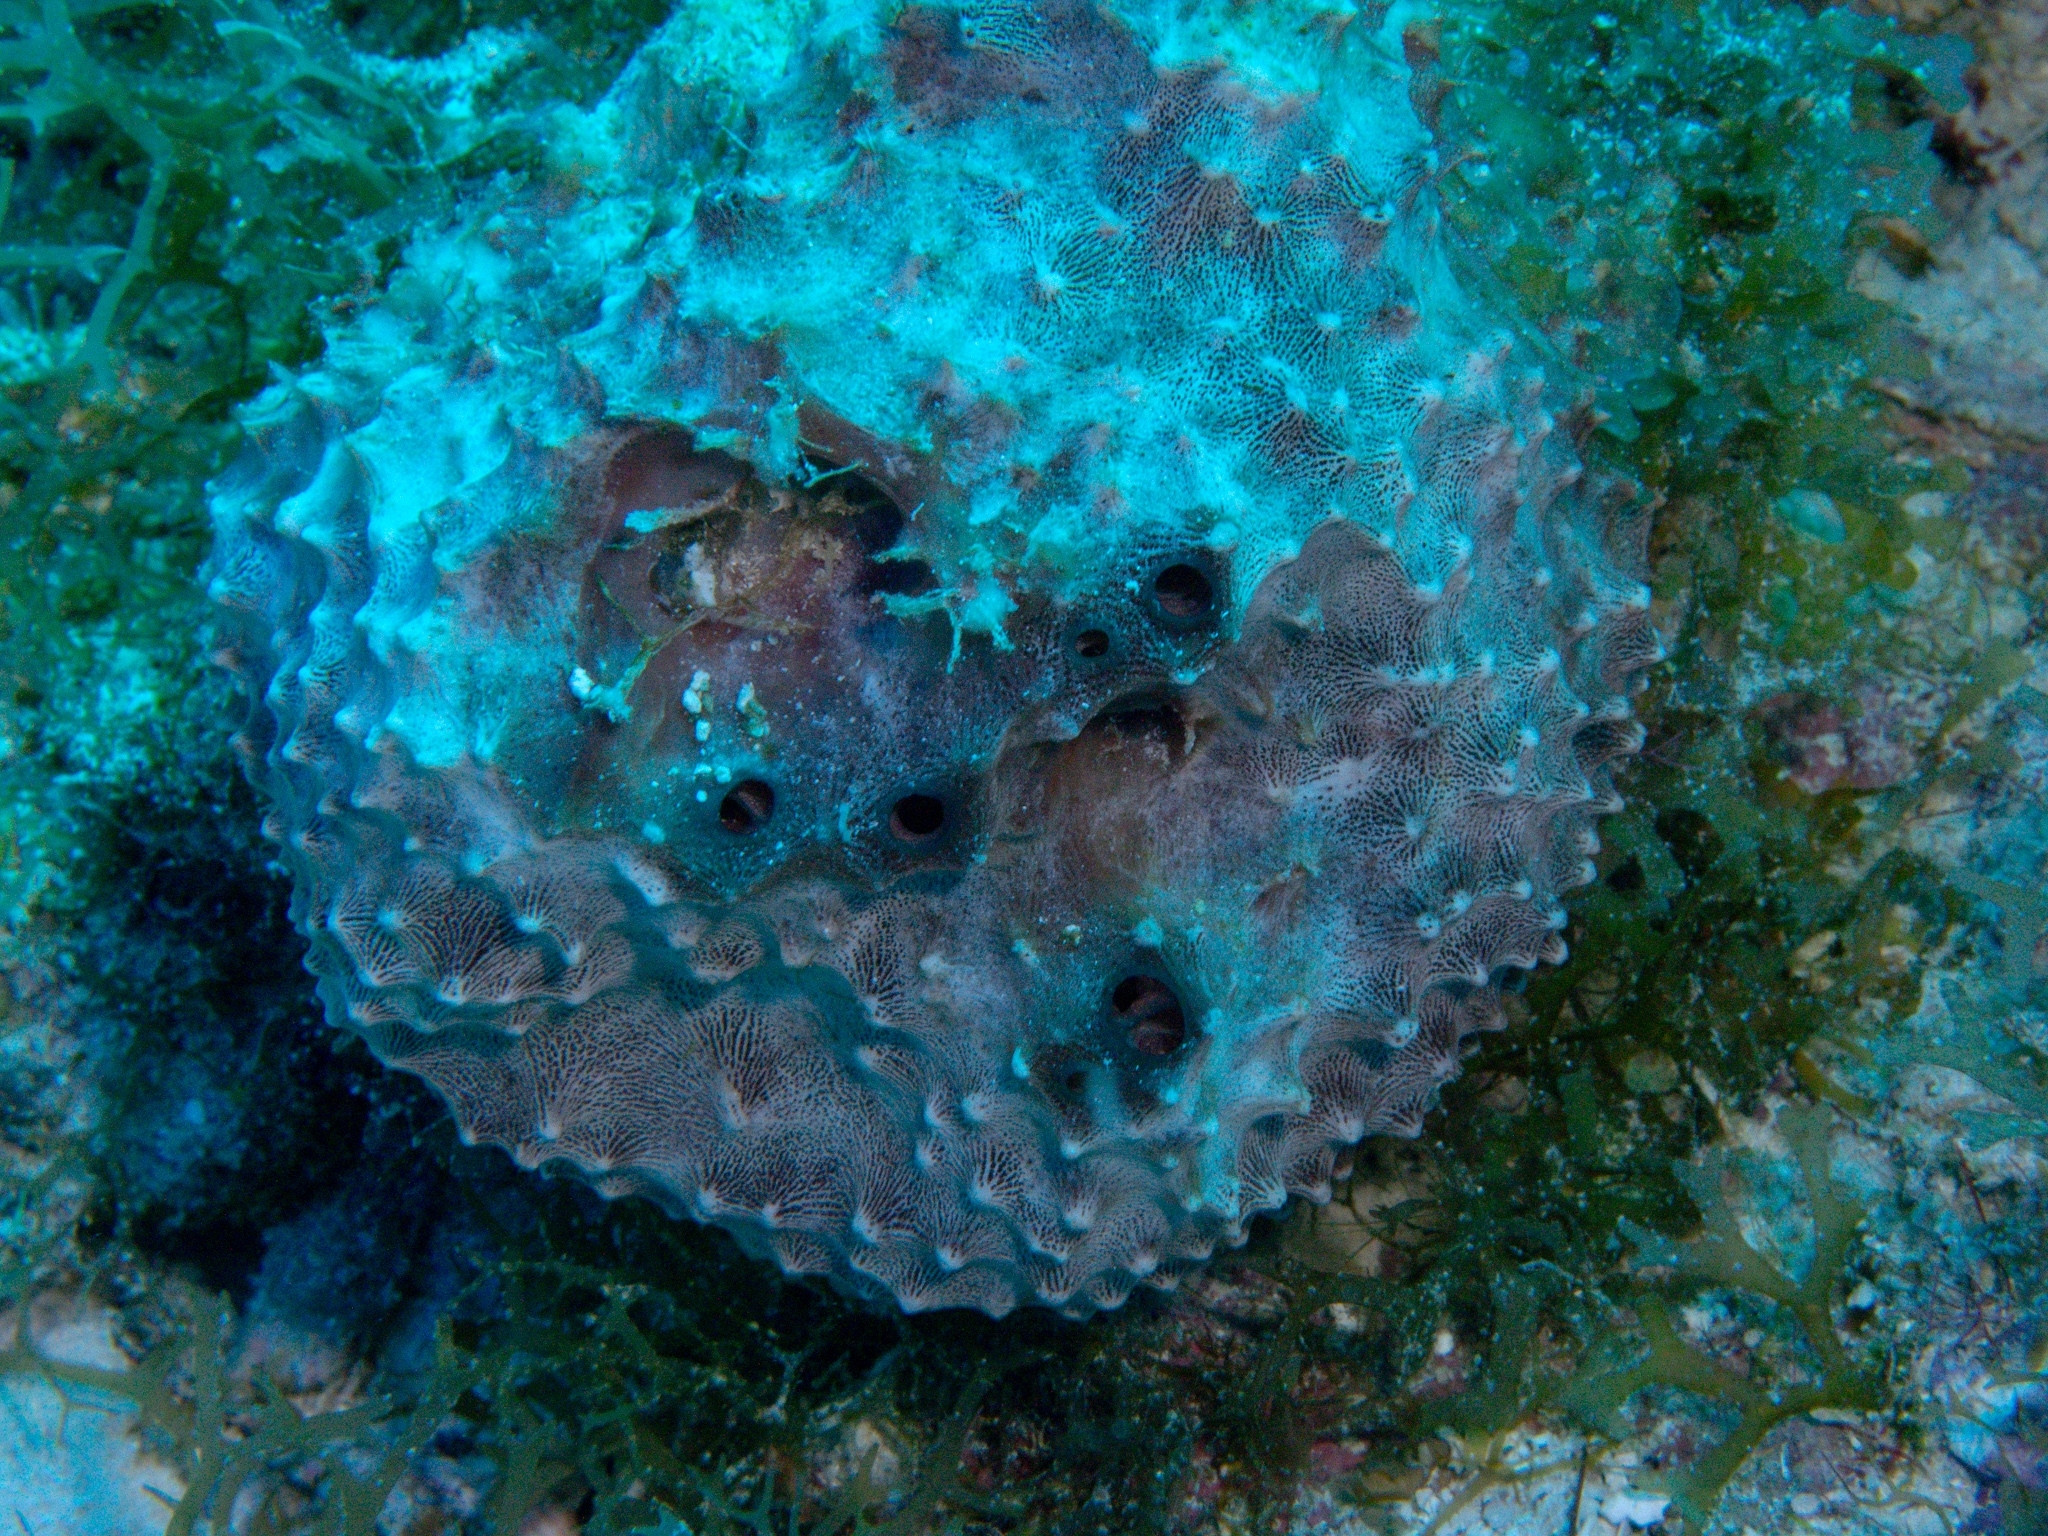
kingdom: Animalia
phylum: Porifera
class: Demospongiae
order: Dictyoceratida
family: Irciniidae
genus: Ircinia
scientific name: Ircinia felix
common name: Stinker sponge
